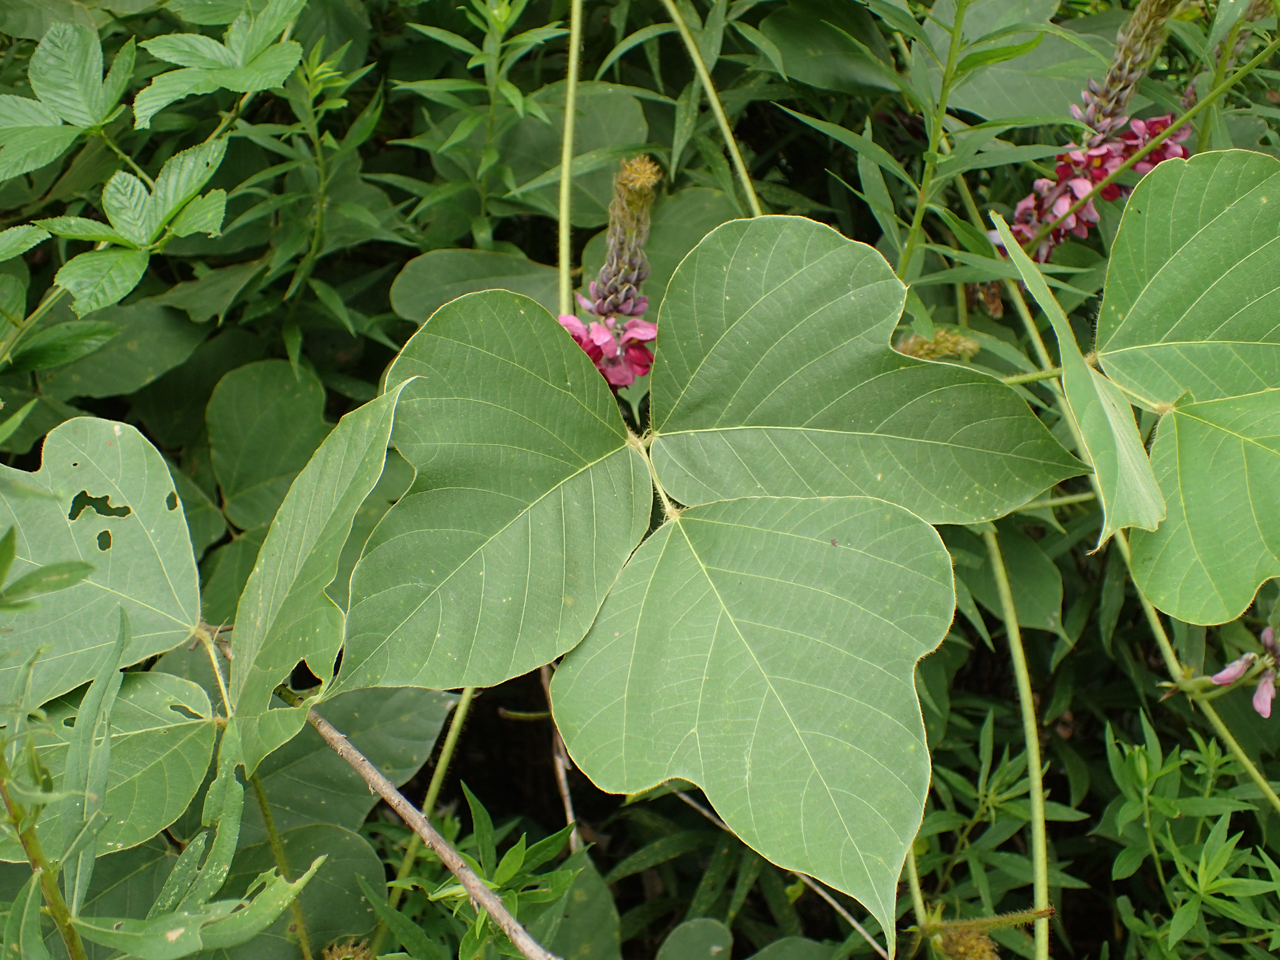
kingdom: Plantae
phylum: Tracheophyta
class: Magnoliopsida
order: Fabales
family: Fabaceae
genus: Pueraria
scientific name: Pueraria montana
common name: Kudzu
